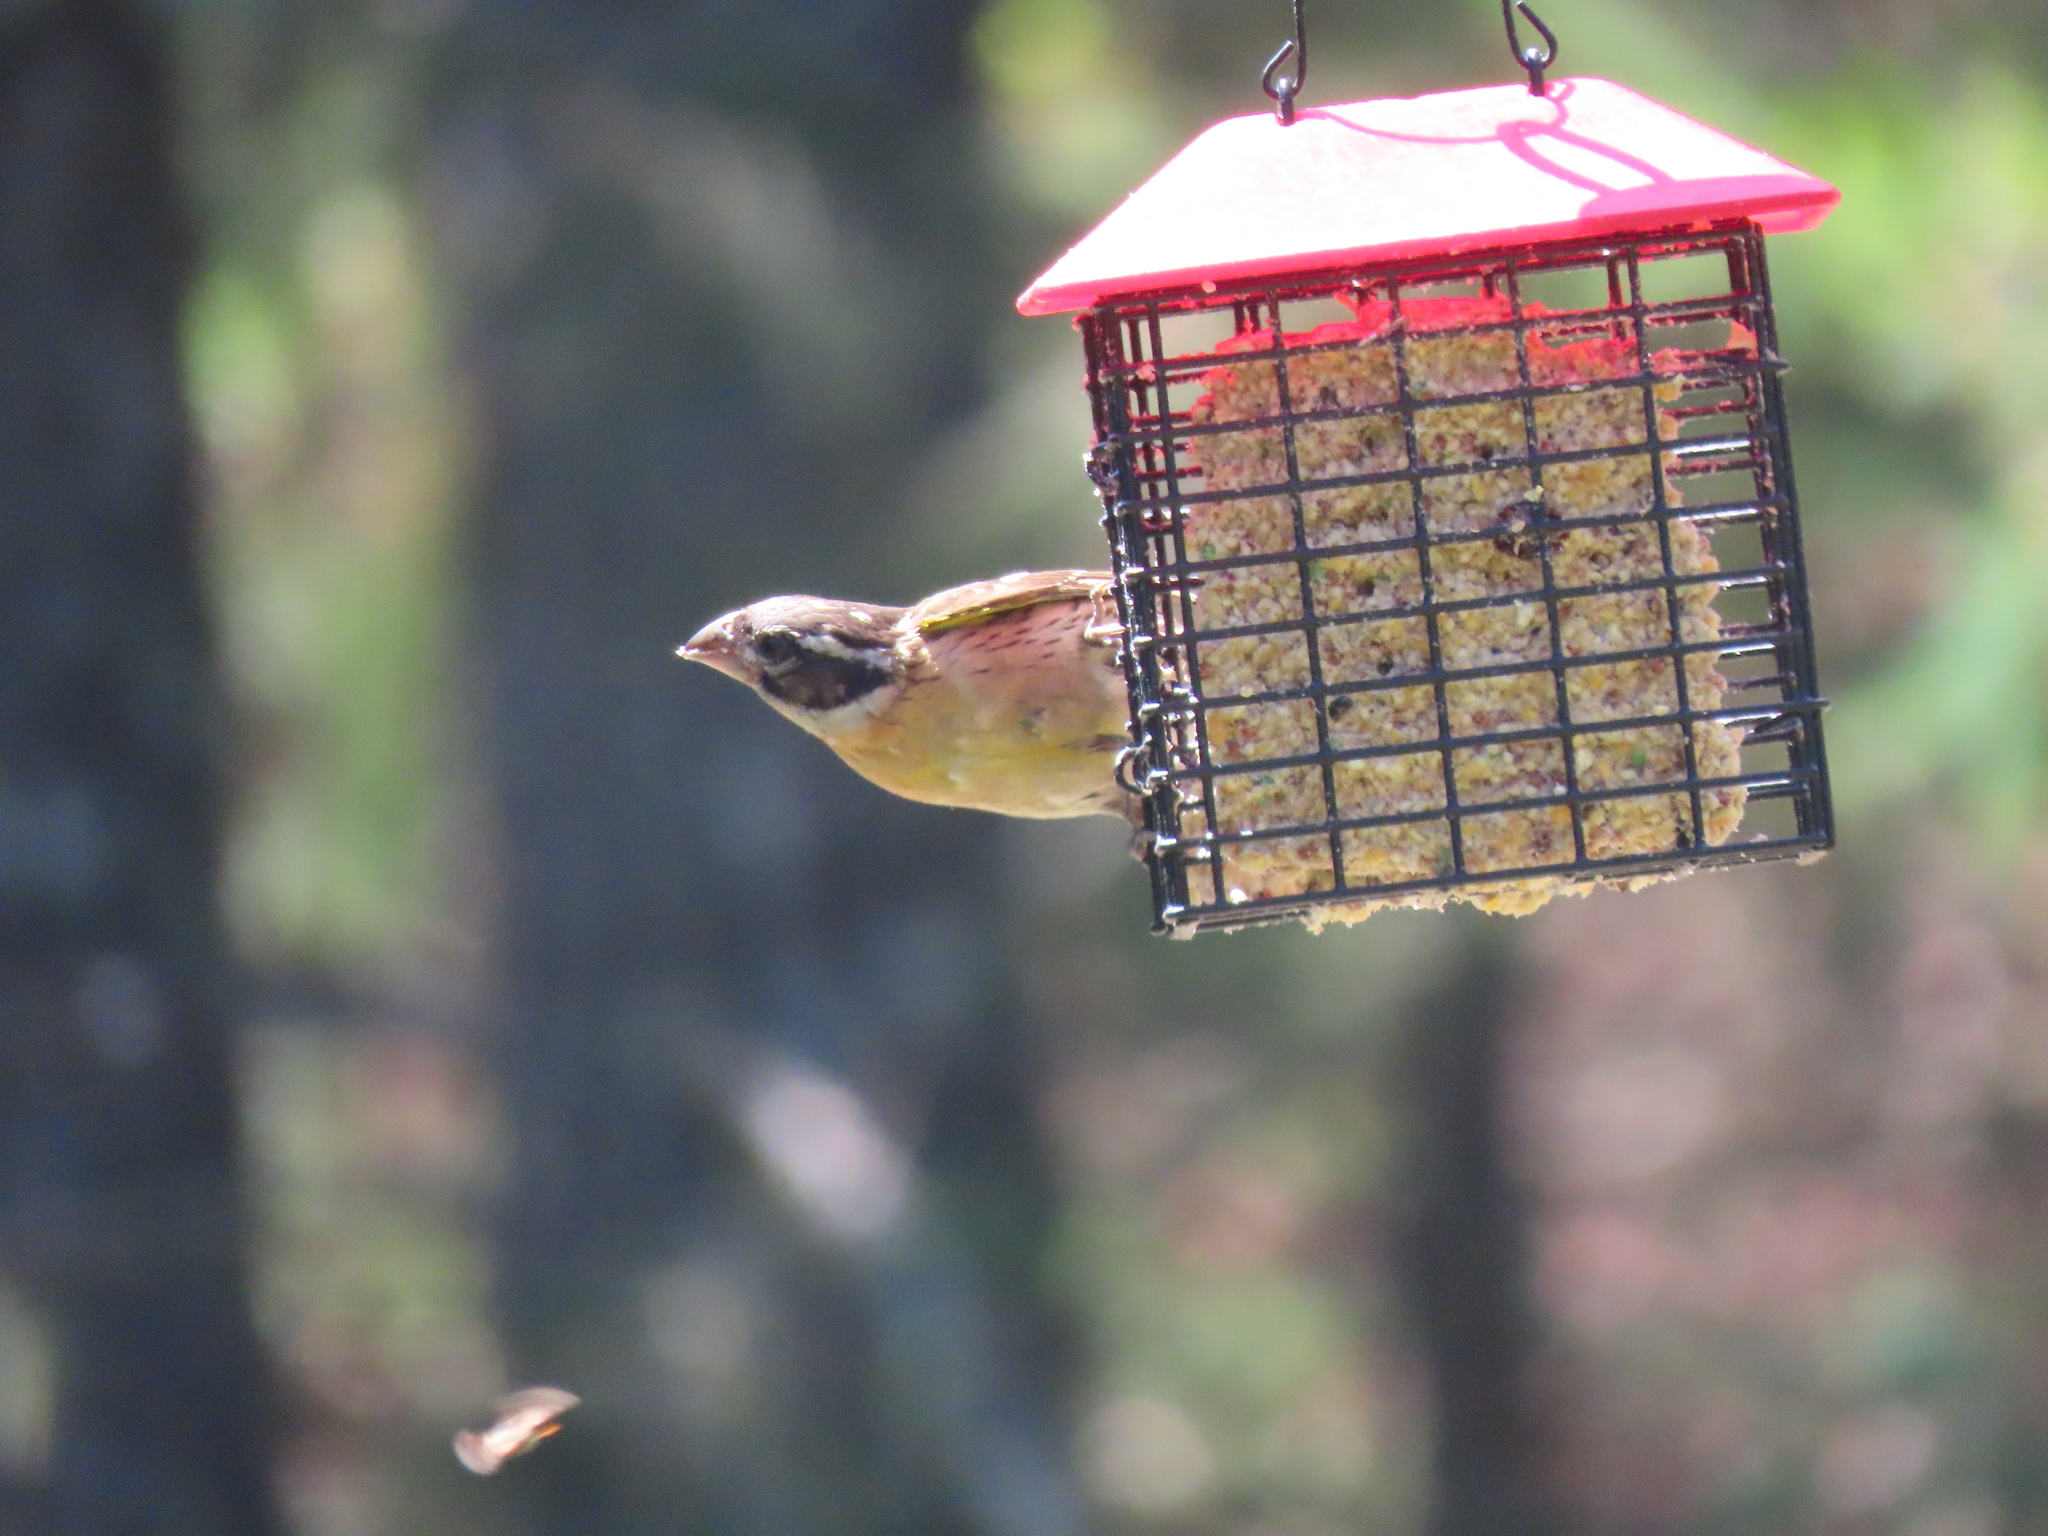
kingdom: Animalia
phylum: Chordata
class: Aves
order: Passeriformes
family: Cardinalidae
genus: Pheucticus
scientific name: Pheucticus melanocephalus
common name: Black-headed grosbeak
